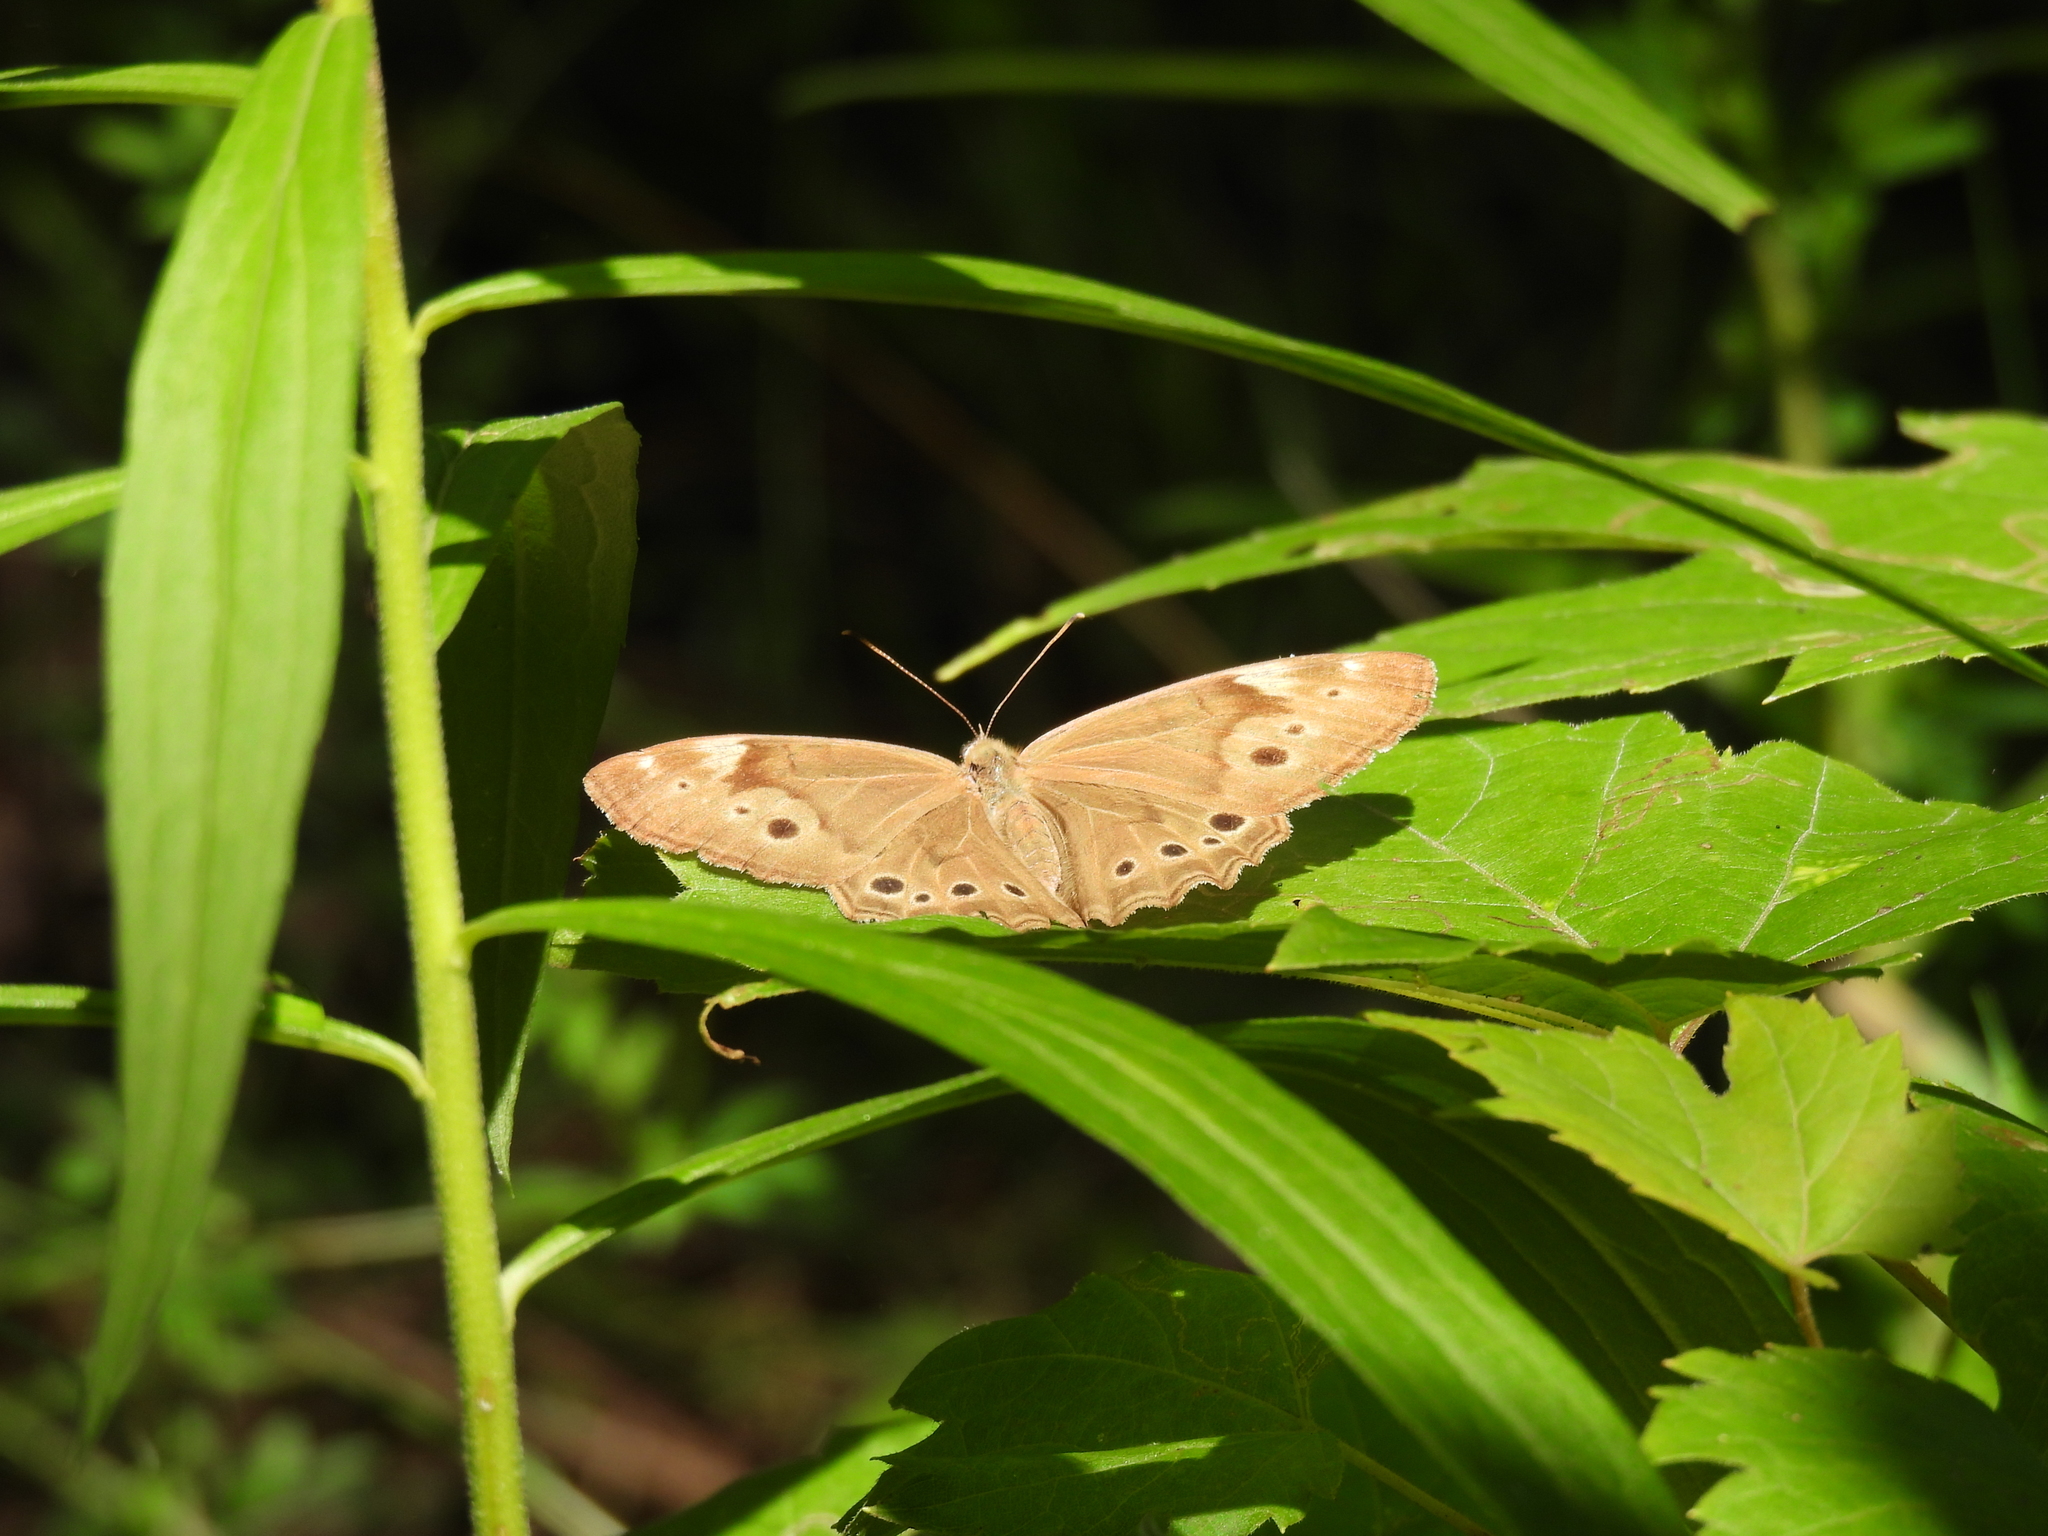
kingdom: Animalia
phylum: Arthropoda
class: Insecta
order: Lepidoptera
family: Nymphalidae
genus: Lethe
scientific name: Lethe anthedon
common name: Northern pearly-eye
